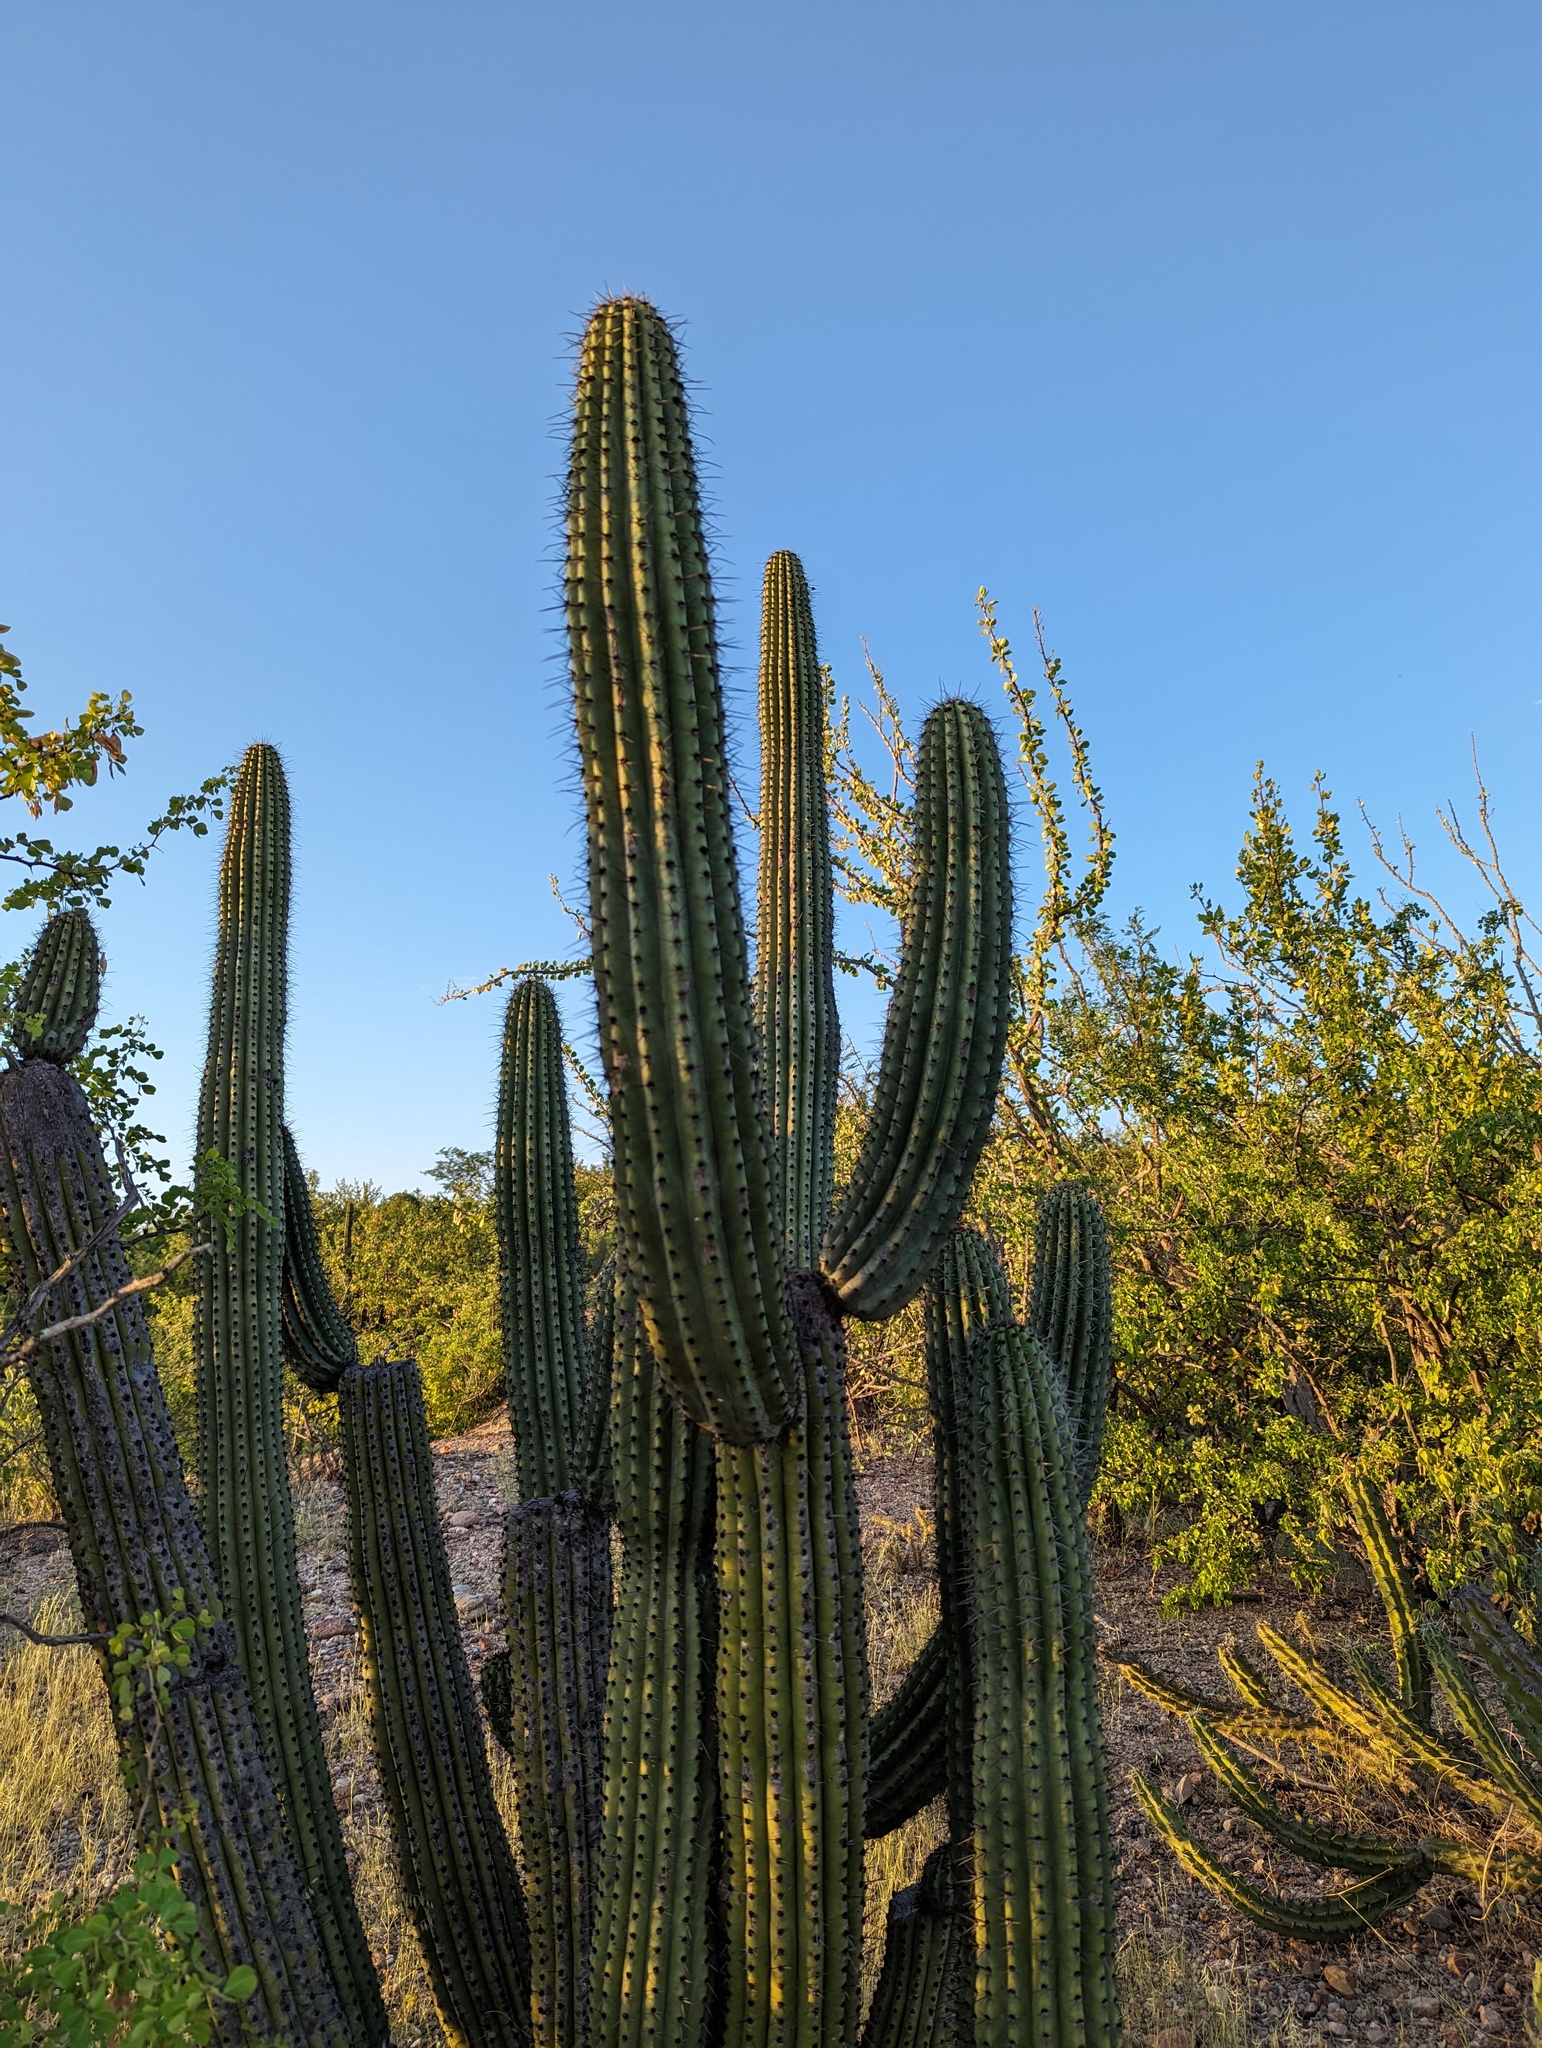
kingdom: Plantae
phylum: Tracheophyta
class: Magnoliopsida
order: Caryophyllales
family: Cactaceae
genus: Stenocereus
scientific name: Stenocereus thurberi
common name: Organ pipe cactus
